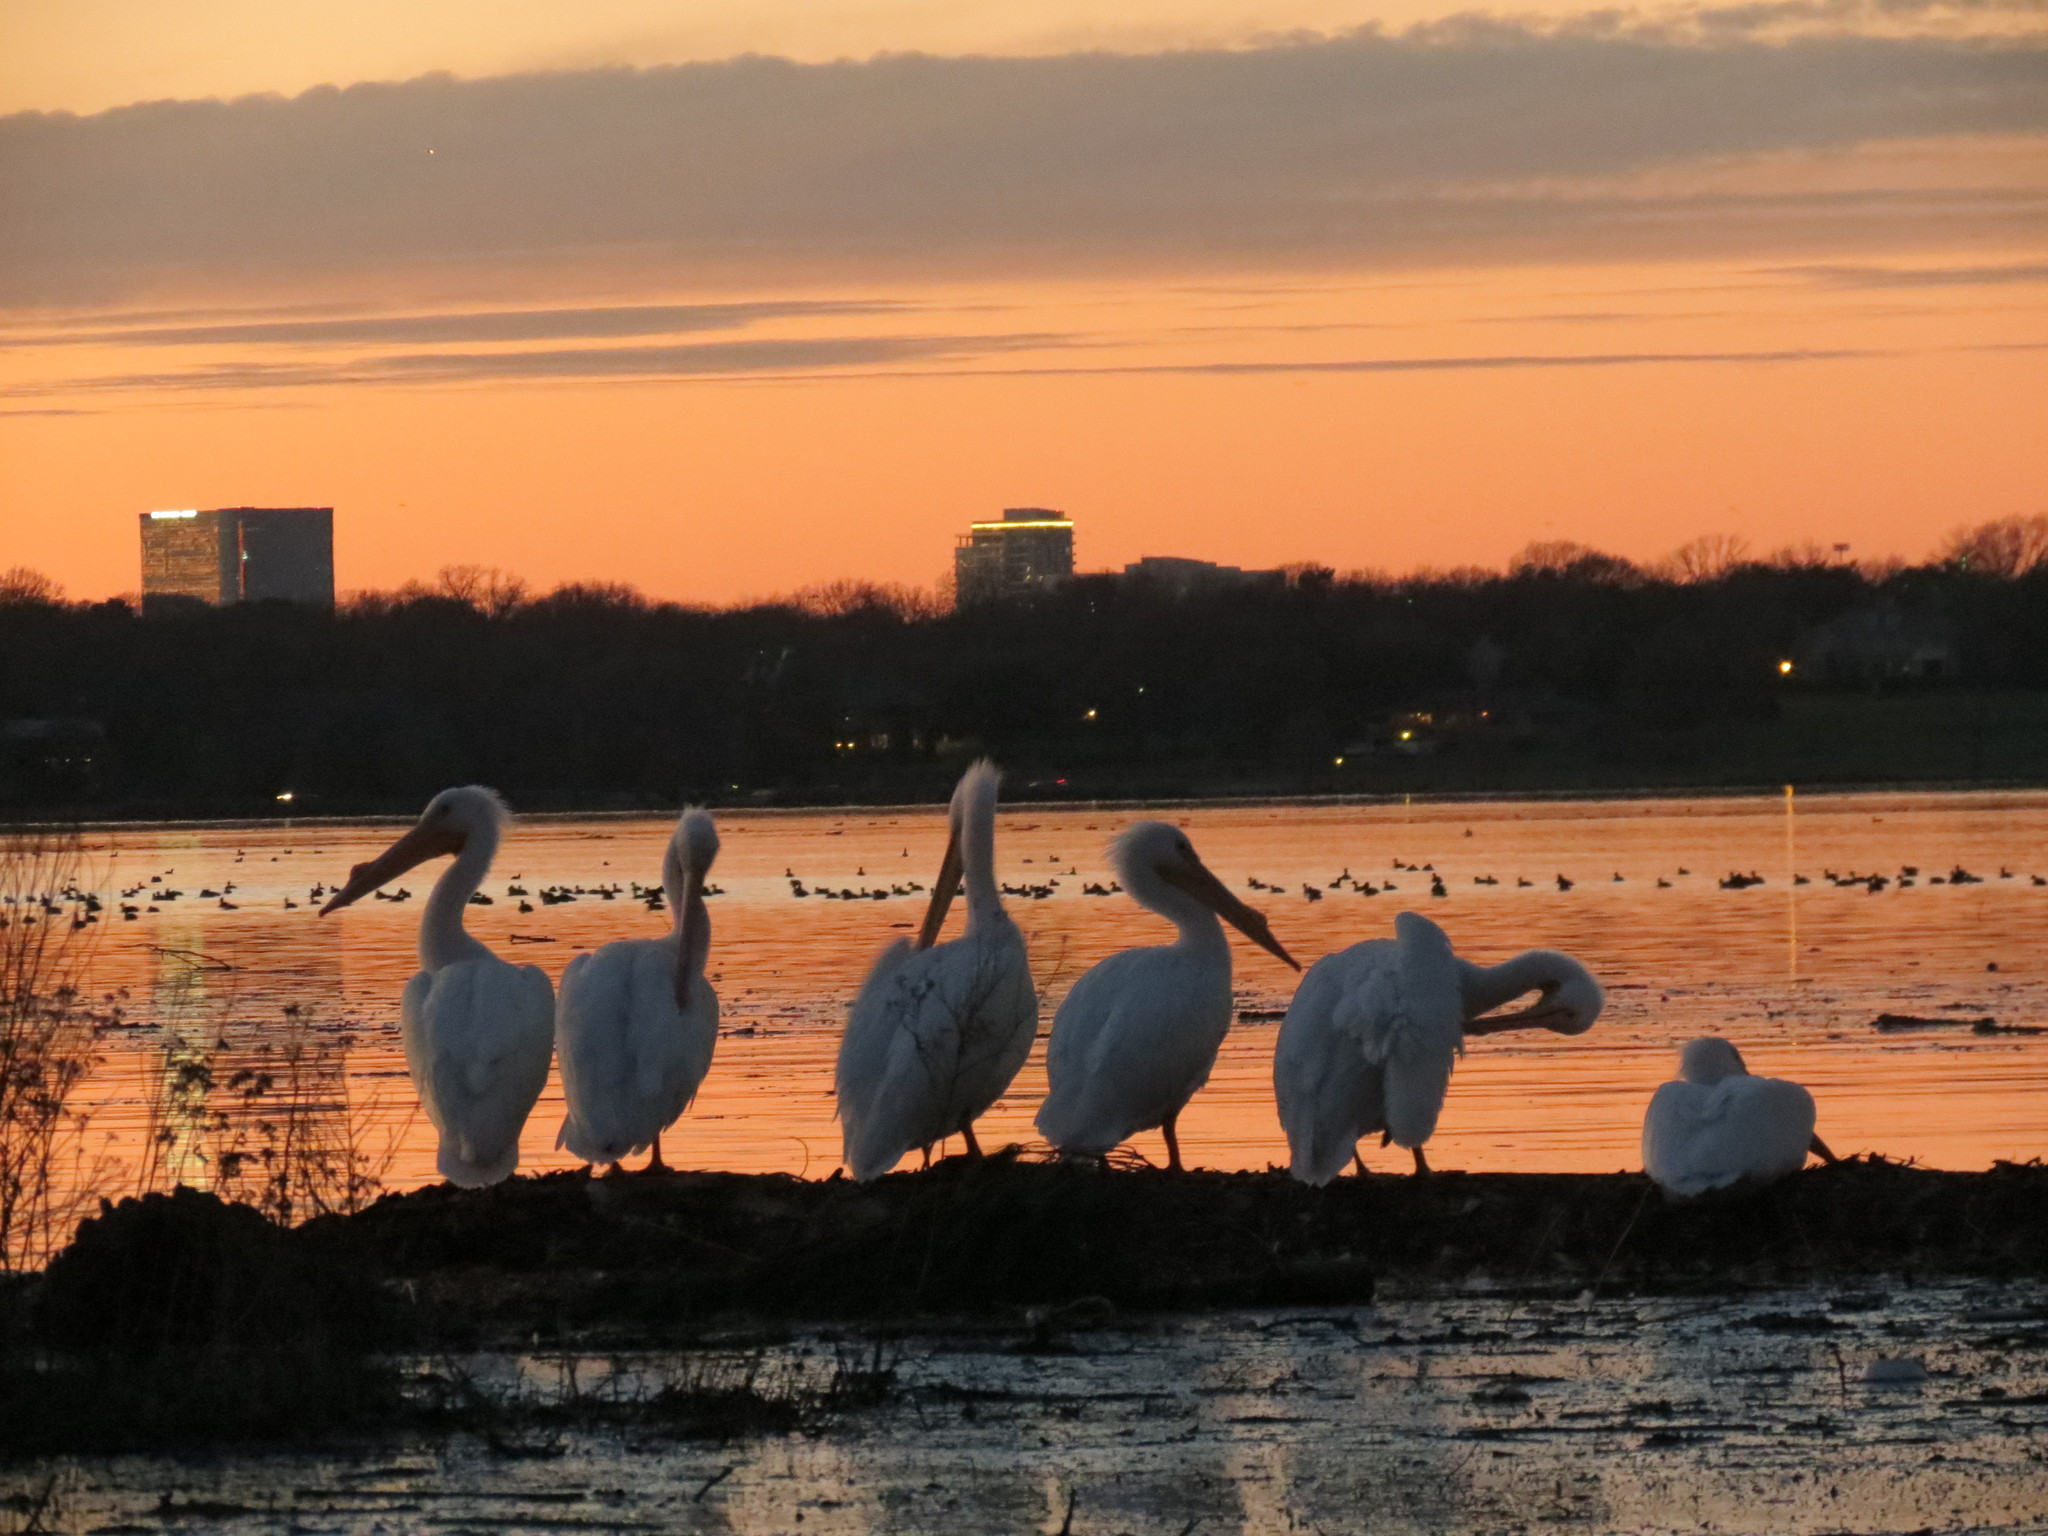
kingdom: Animalia
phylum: Chordata
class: Aves
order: Pelecaniformes
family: Pelecanidae
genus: Pelecanus
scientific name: Pelecanus erythrorhynchos
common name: American white pelican
